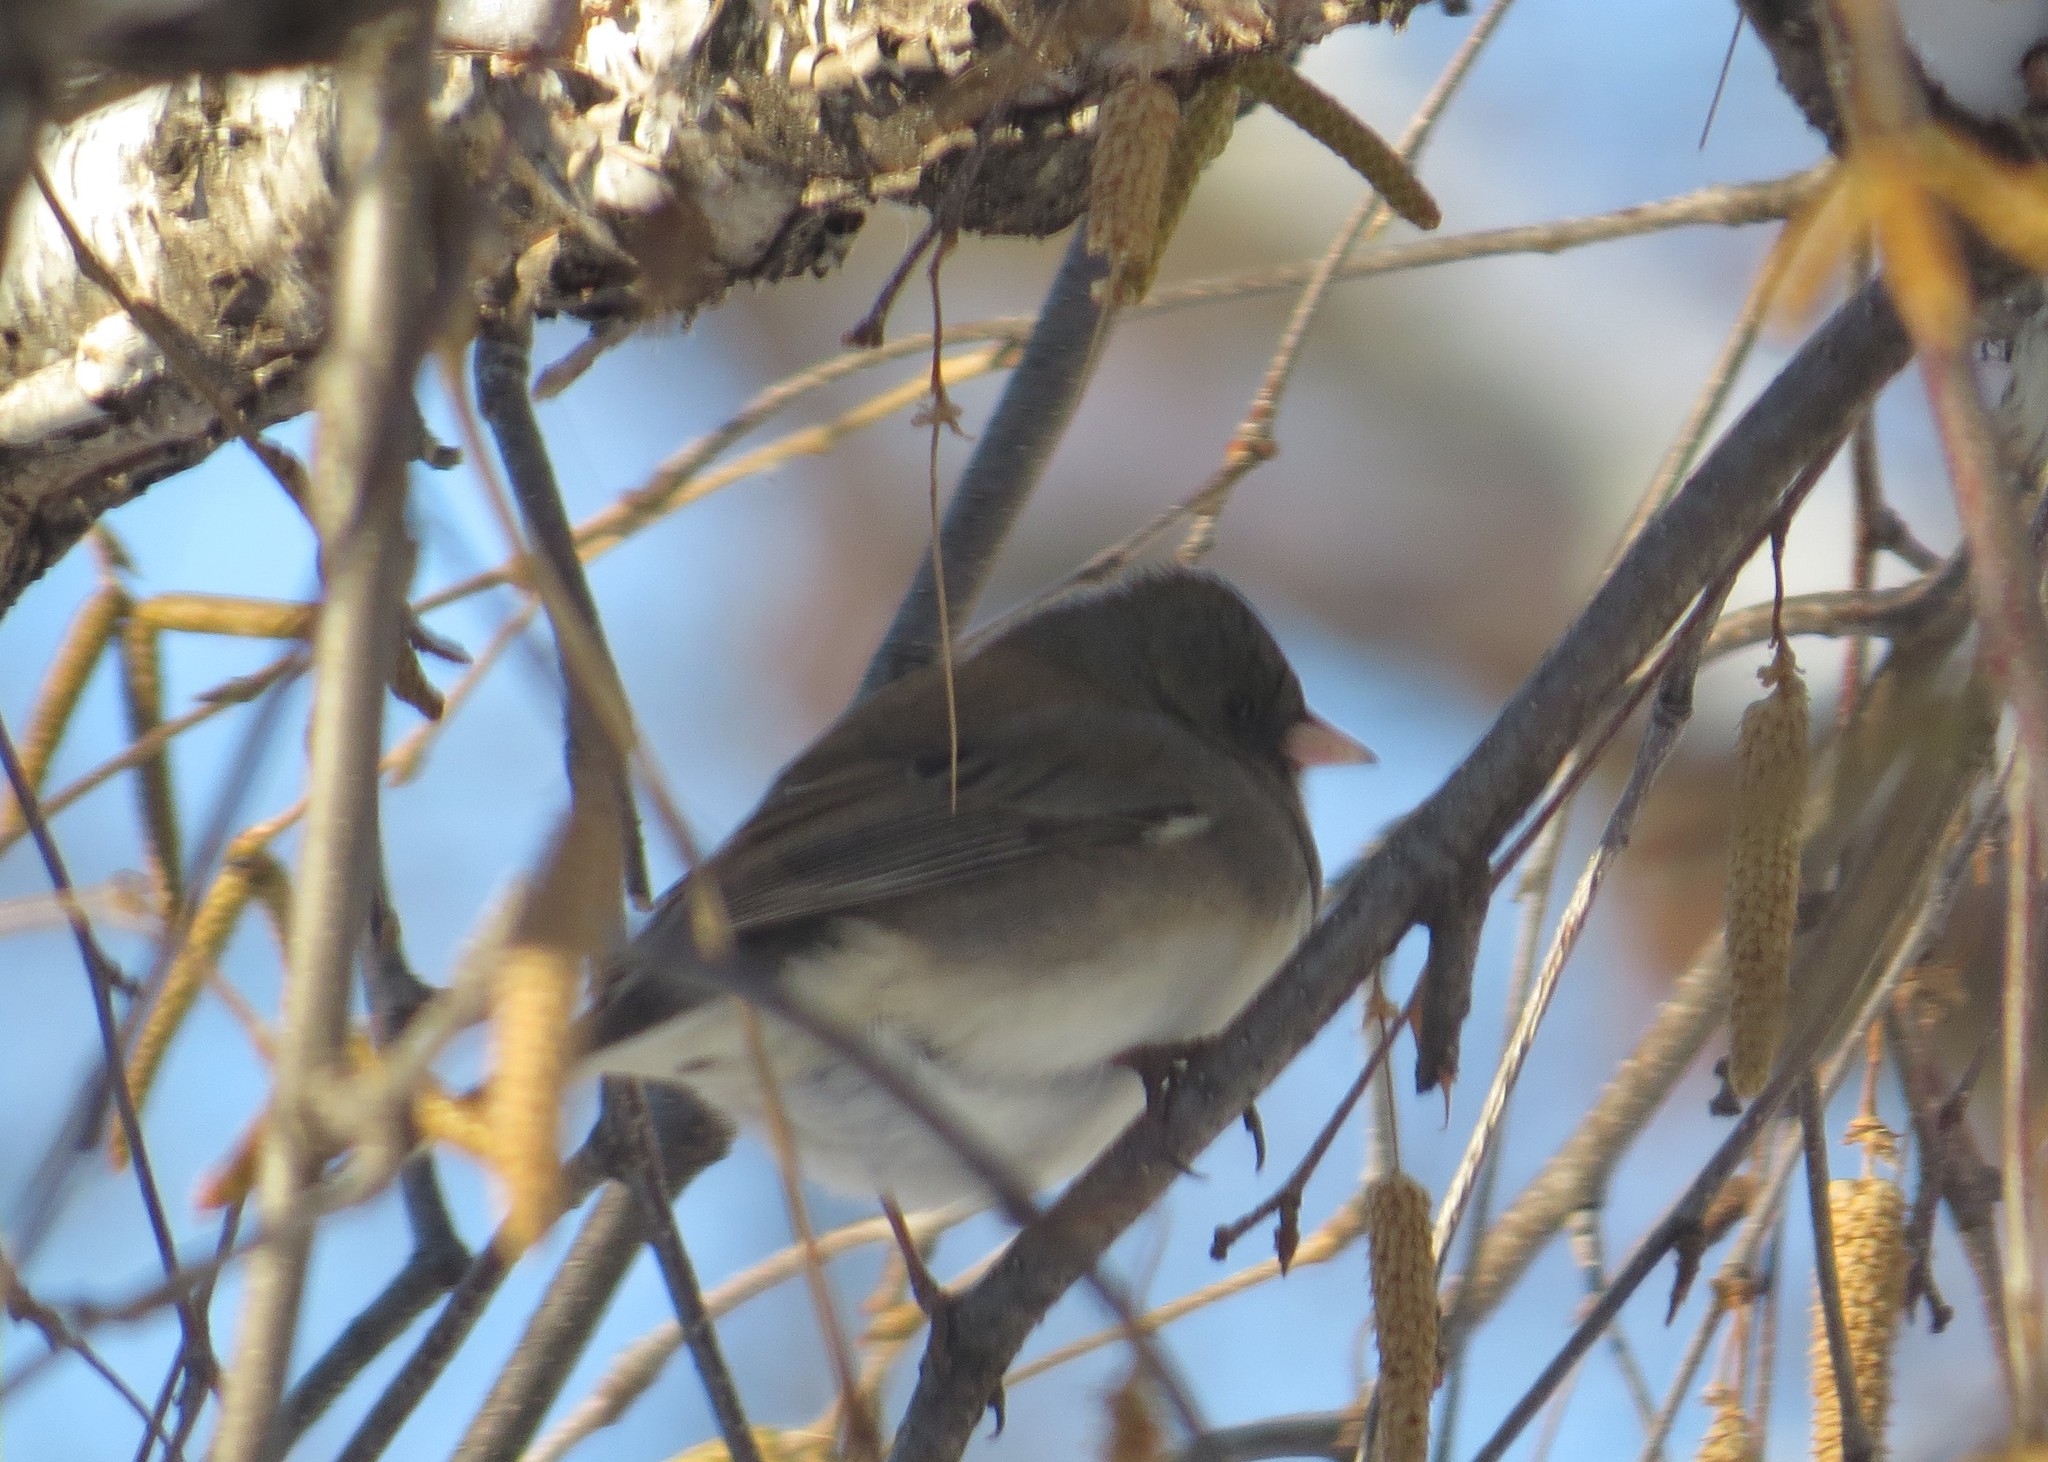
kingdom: Animalia
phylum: Chordata
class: Aves
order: Passeriformes
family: Passerellidae
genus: Junco
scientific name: Junco hyemalis
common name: Dark-eyed junco
